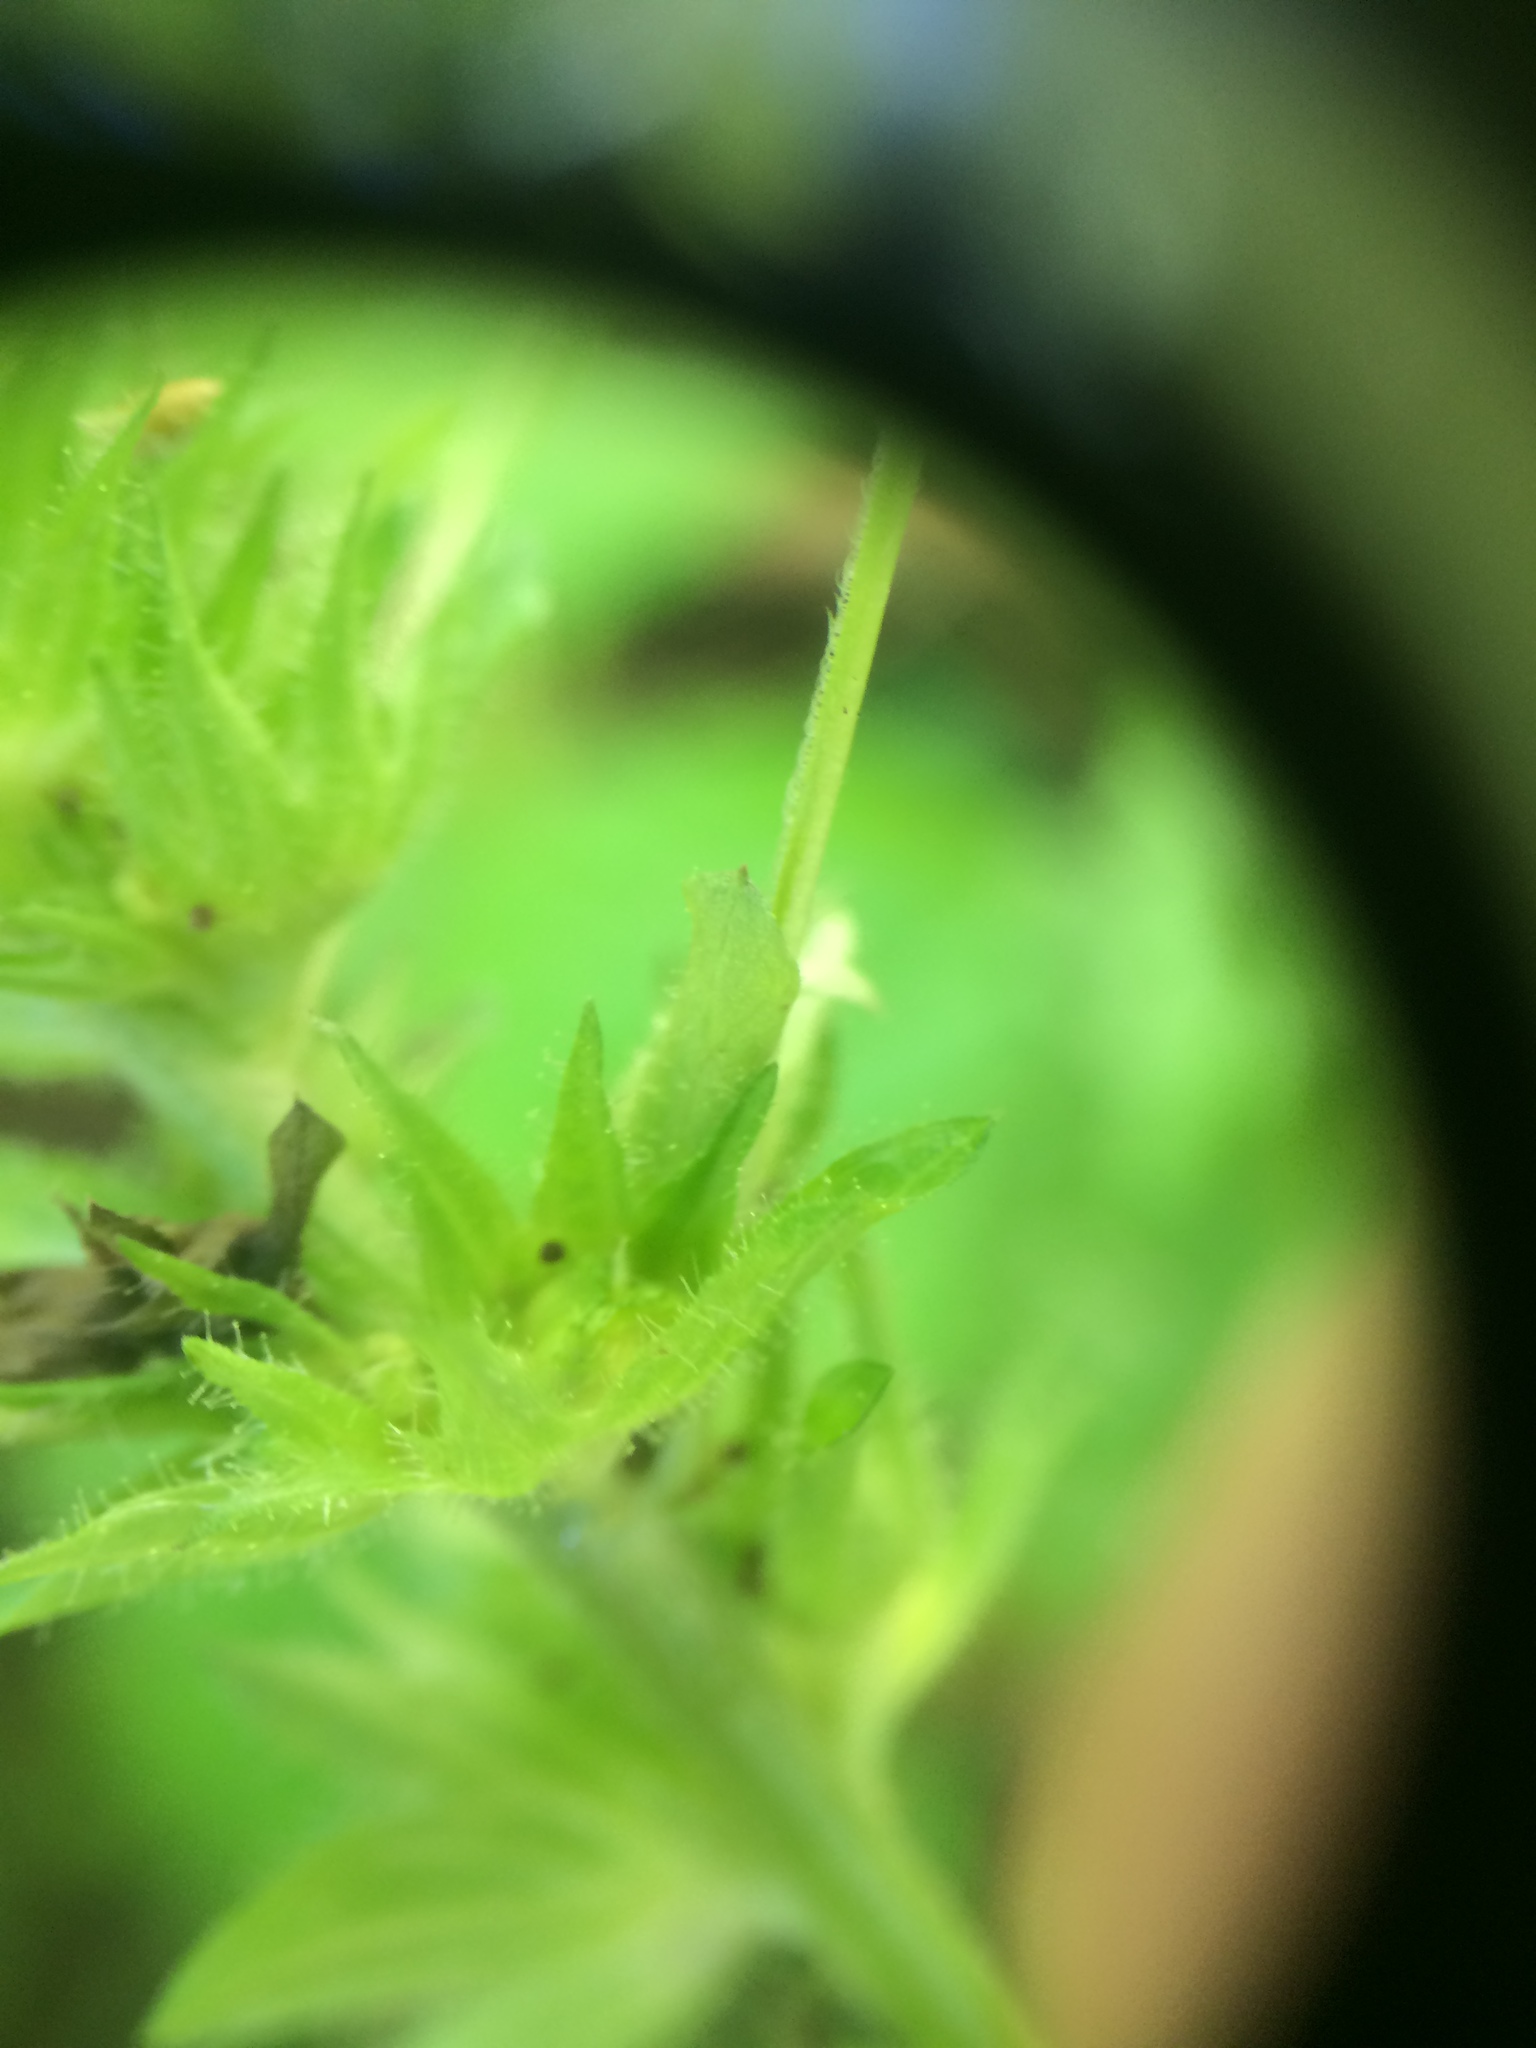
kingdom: Plantae
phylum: Tracheophyta
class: Magnoliopsida
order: Malpighiales
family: Euphorbiaceae
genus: Acalypha
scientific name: Acalypha rhomboidea
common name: Rhombic copperleaf
